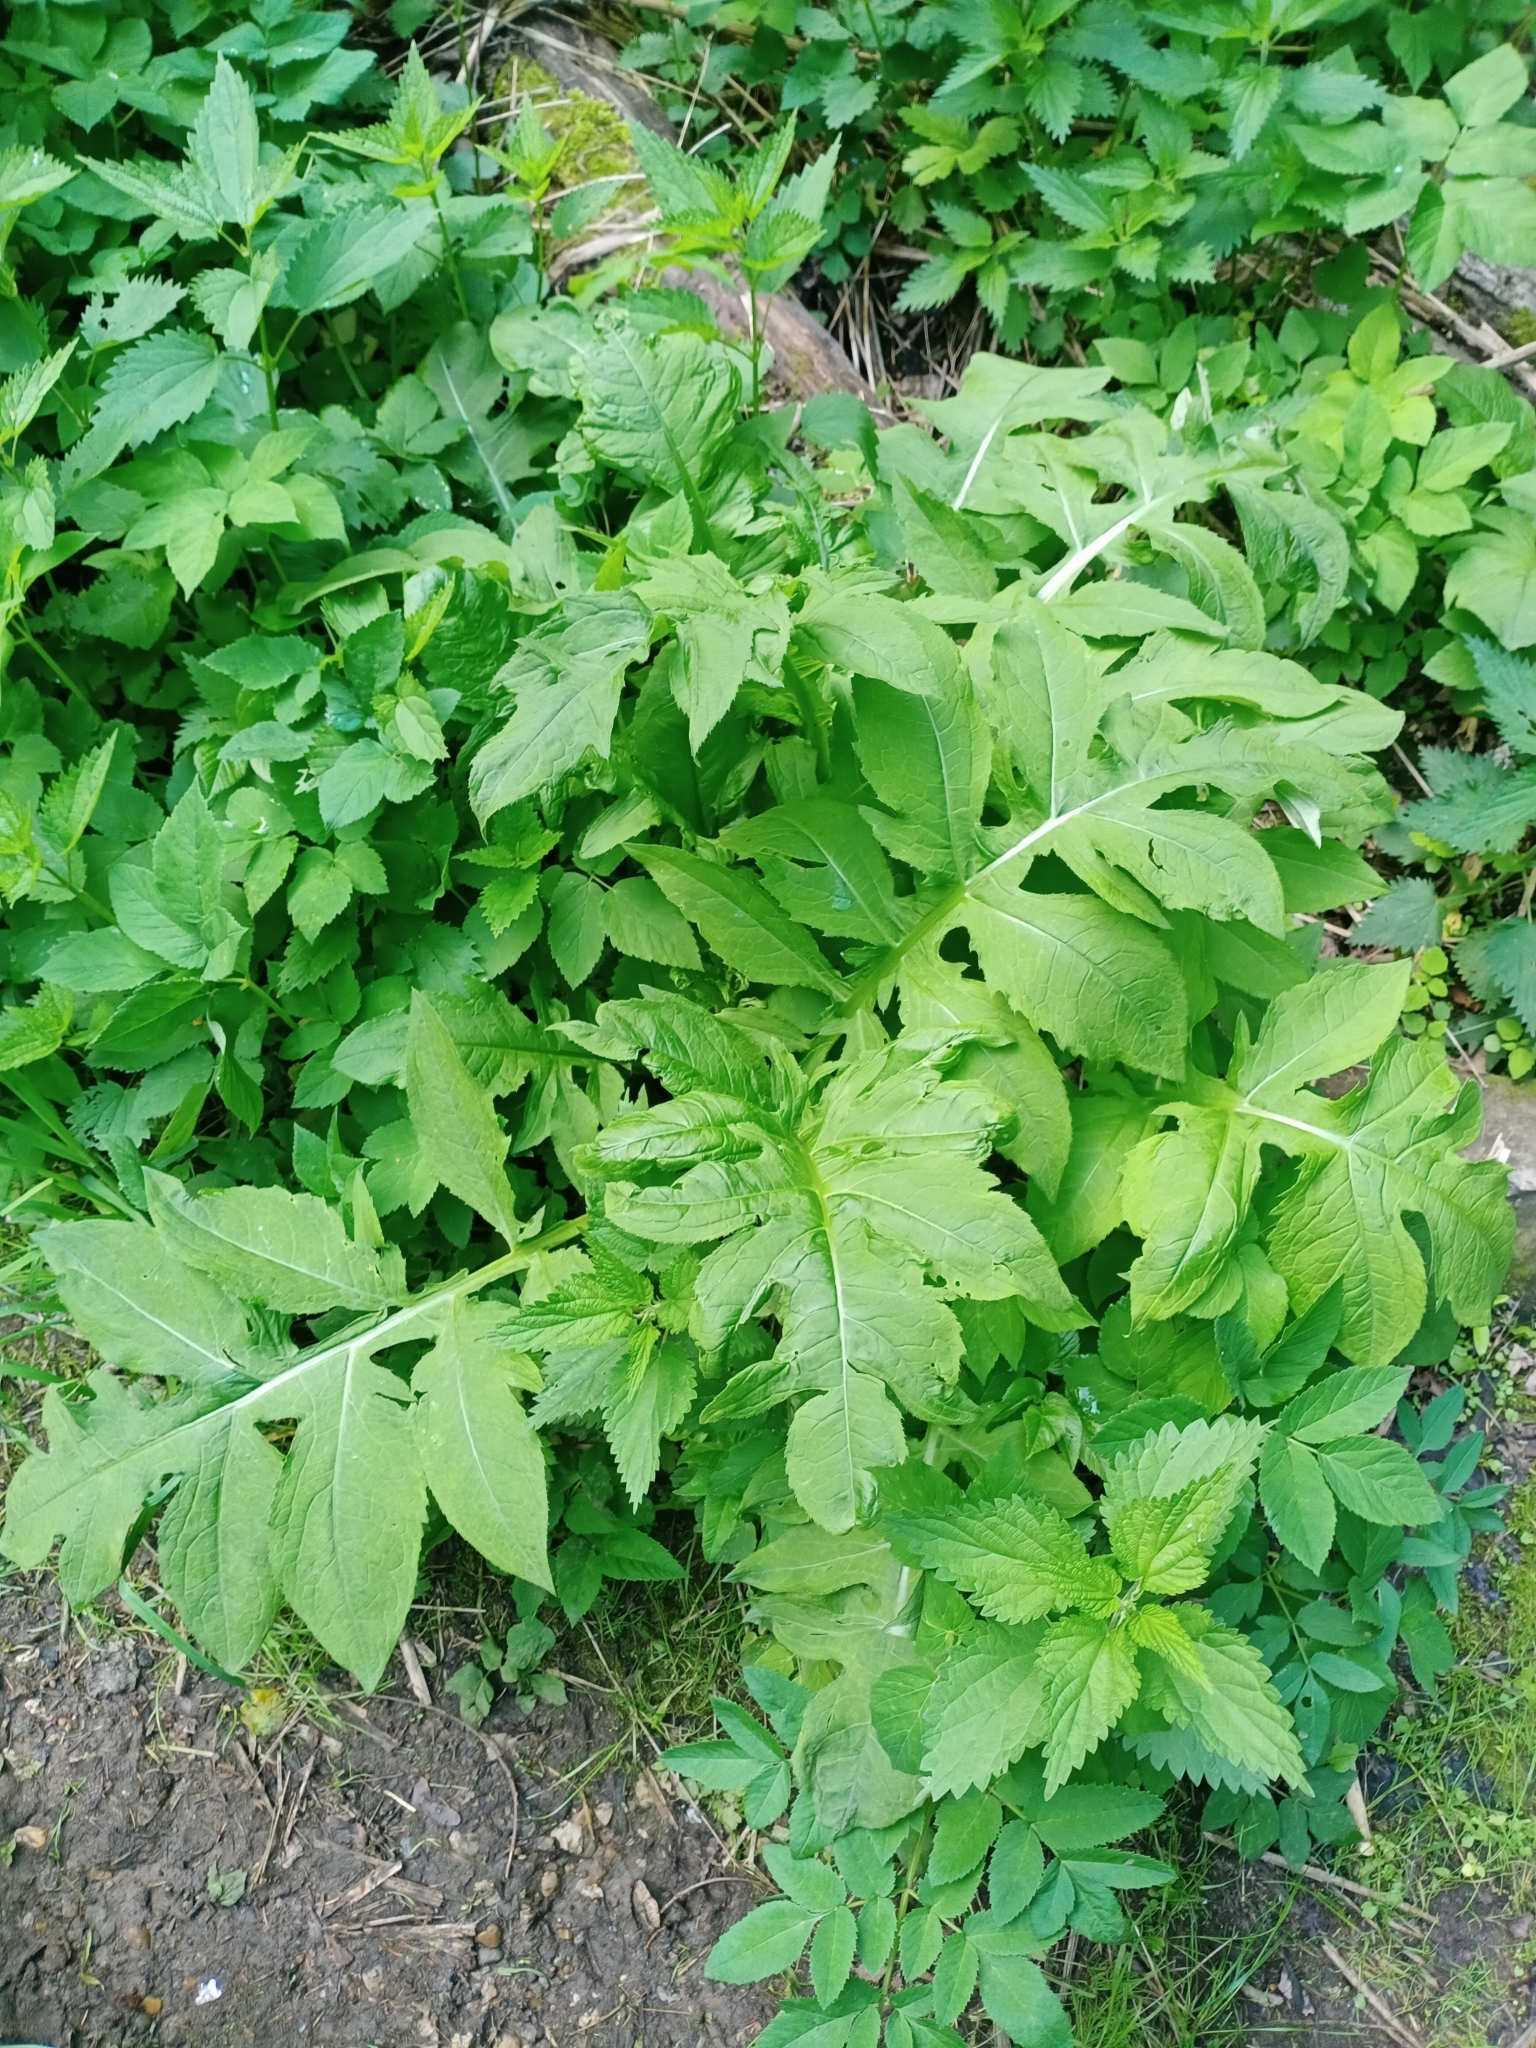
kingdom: Plantae
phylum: Tracheophyta
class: Magnoliopsida
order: Asterales
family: Asteraceae
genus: Cirsium
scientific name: Cirsium oleraceum
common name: Cabbage thistle
